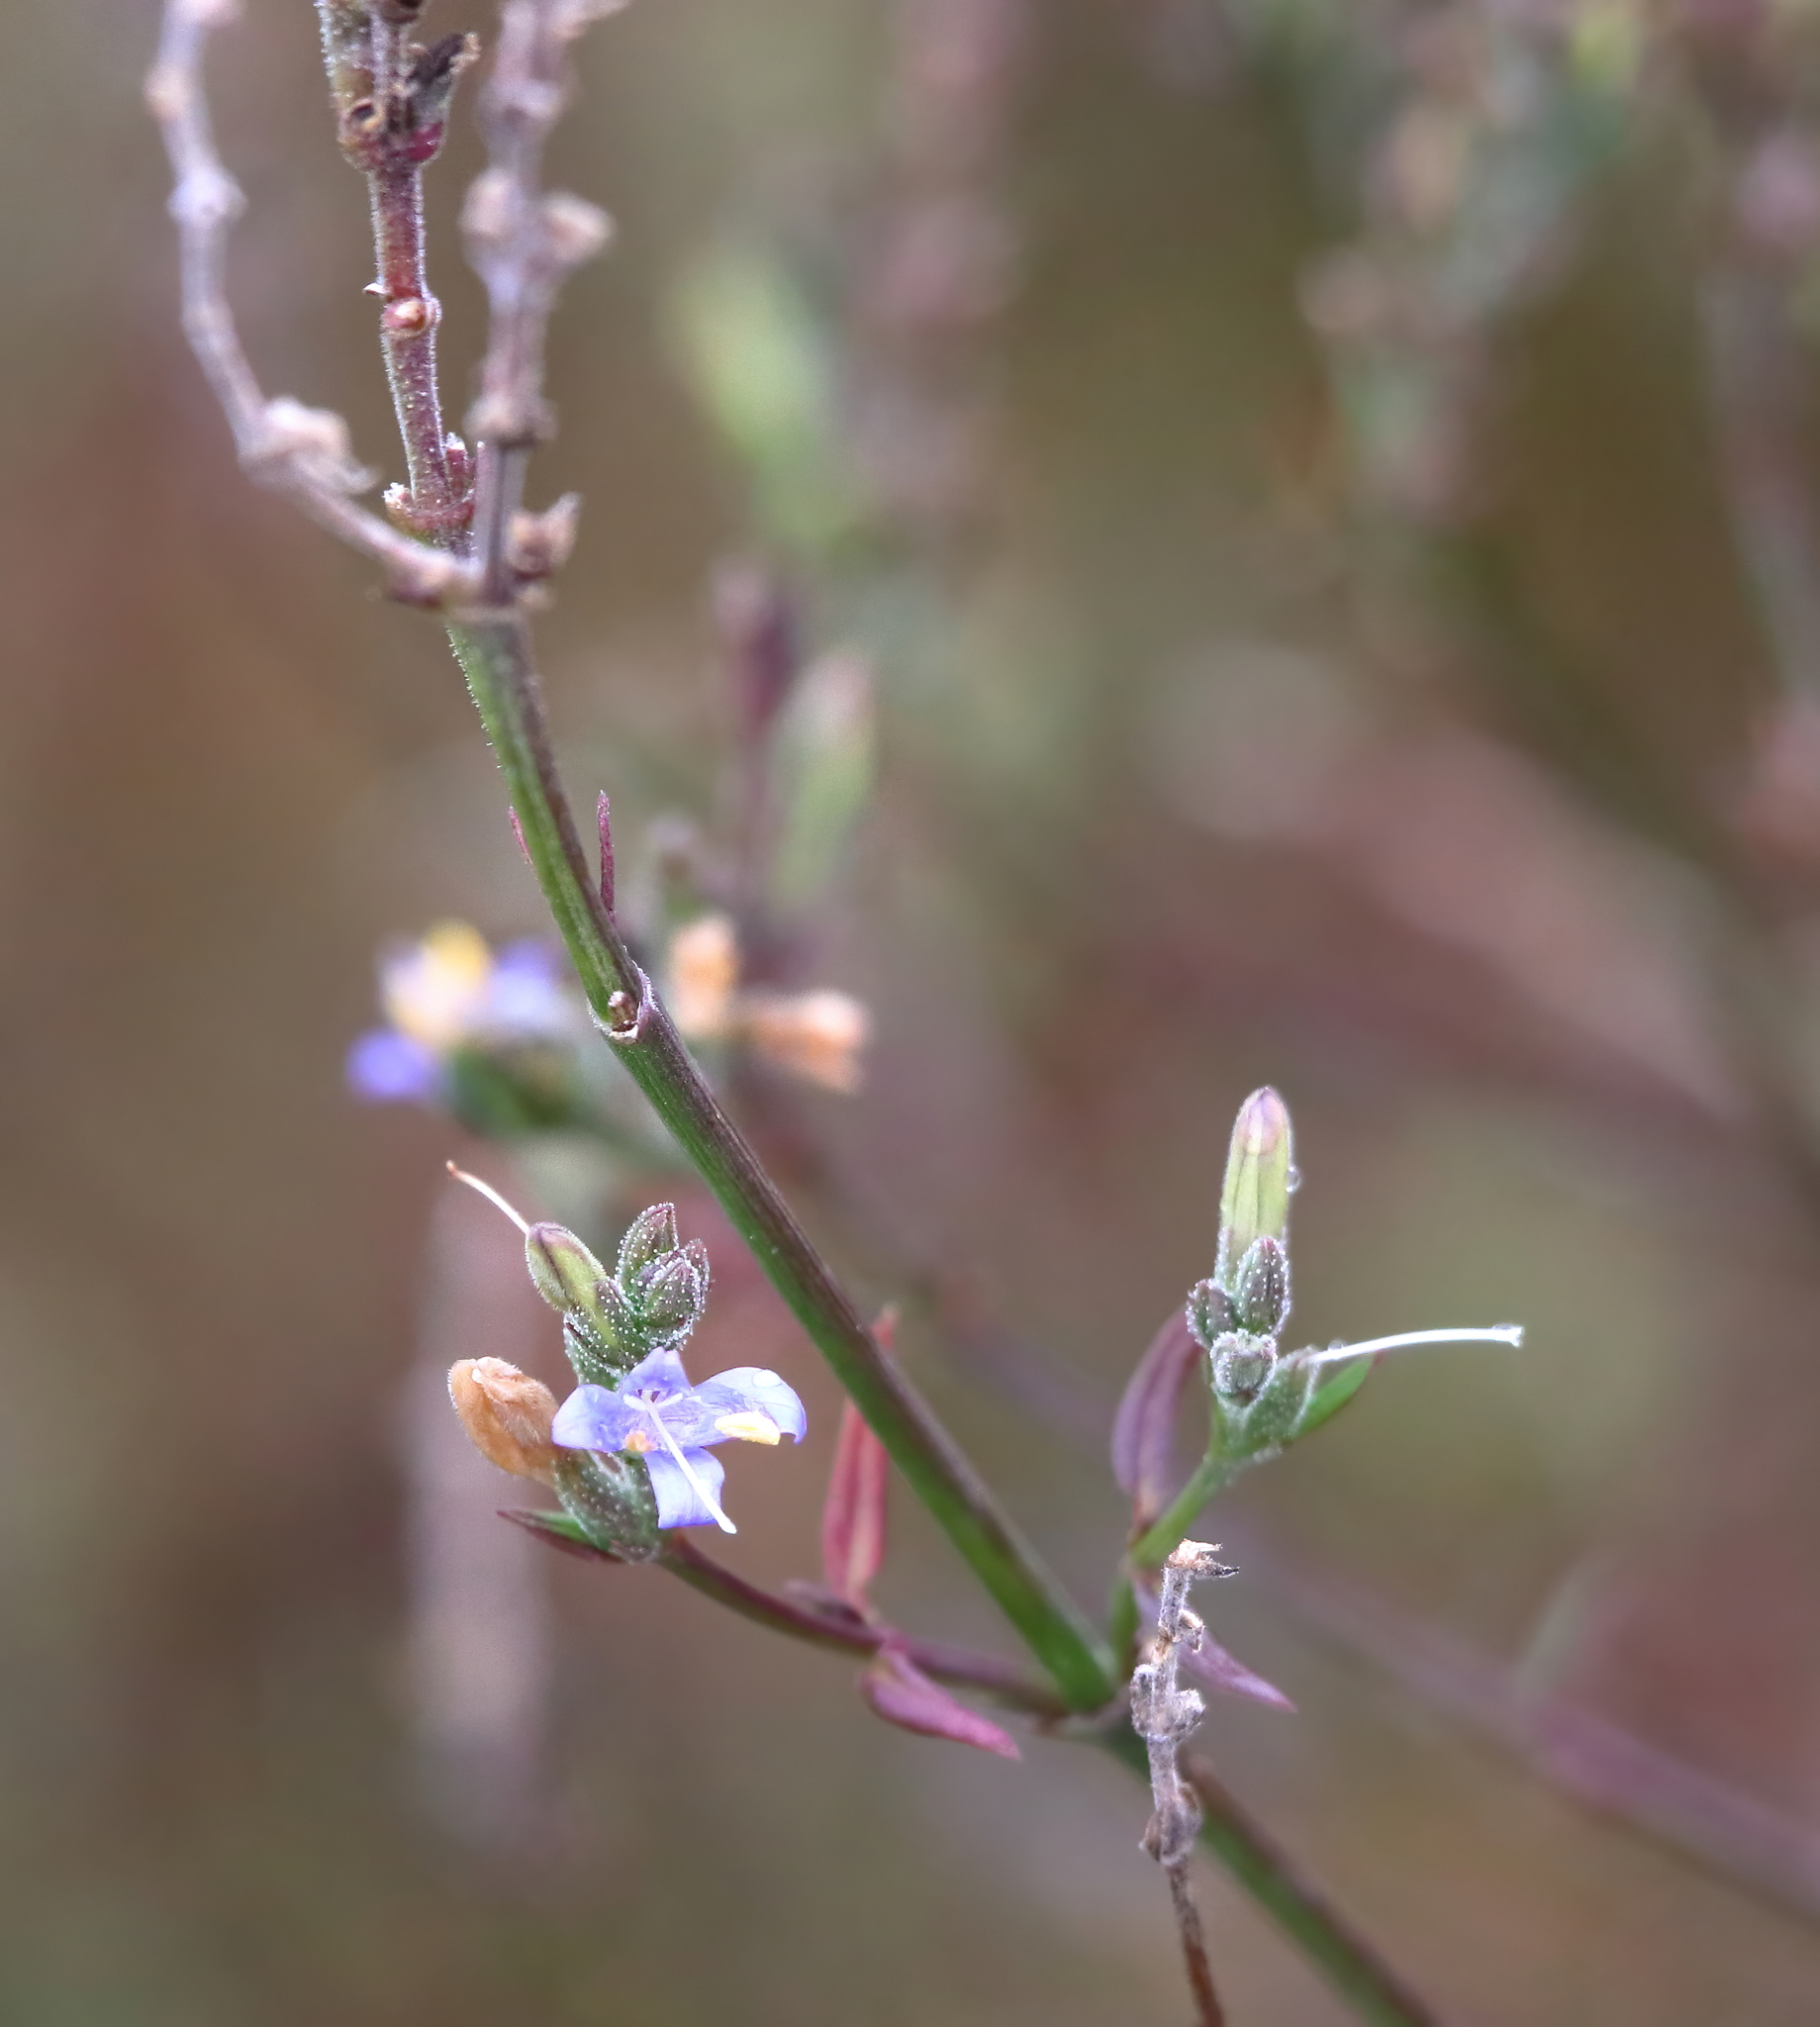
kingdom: Plantae
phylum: Tracheophyta
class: Magnoliopsida
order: Lamiales
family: Acanthaceae
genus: Carlowrightia
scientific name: Carlowrightia parviflora
